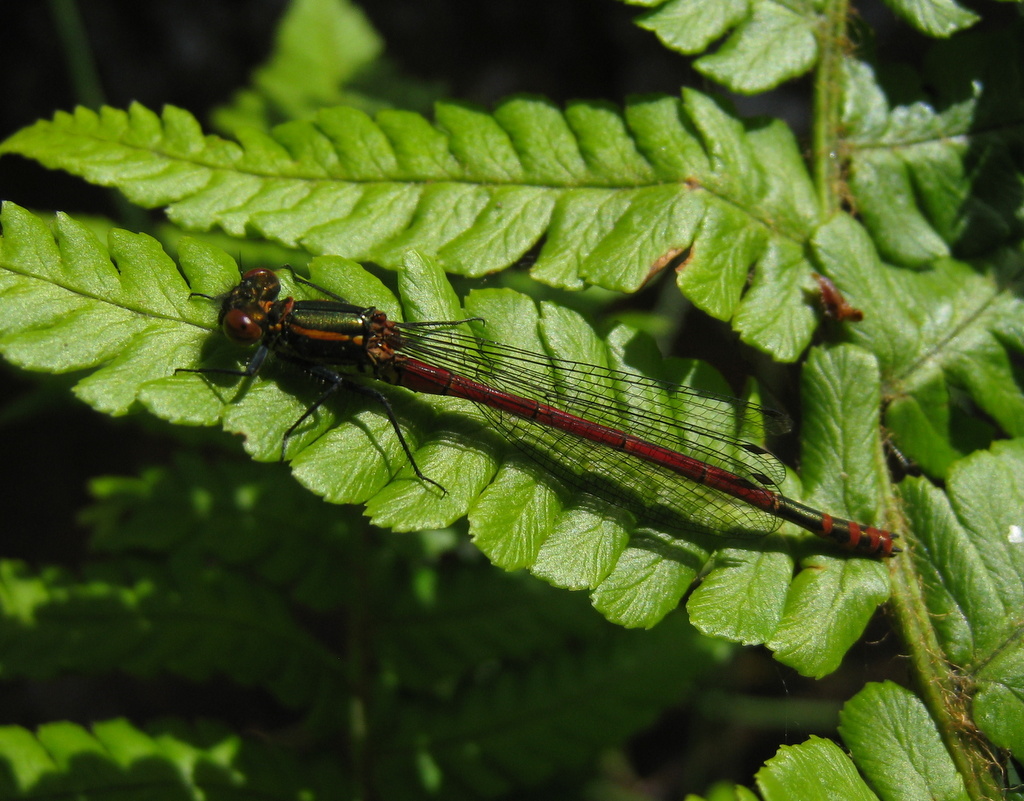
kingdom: Animalia
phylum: Arthropoda
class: Insecta
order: Odonata
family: Coenagrionidae
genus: Pyrrhosoma
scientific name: Pyrrhosoma nymphula
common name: Large red damsel
